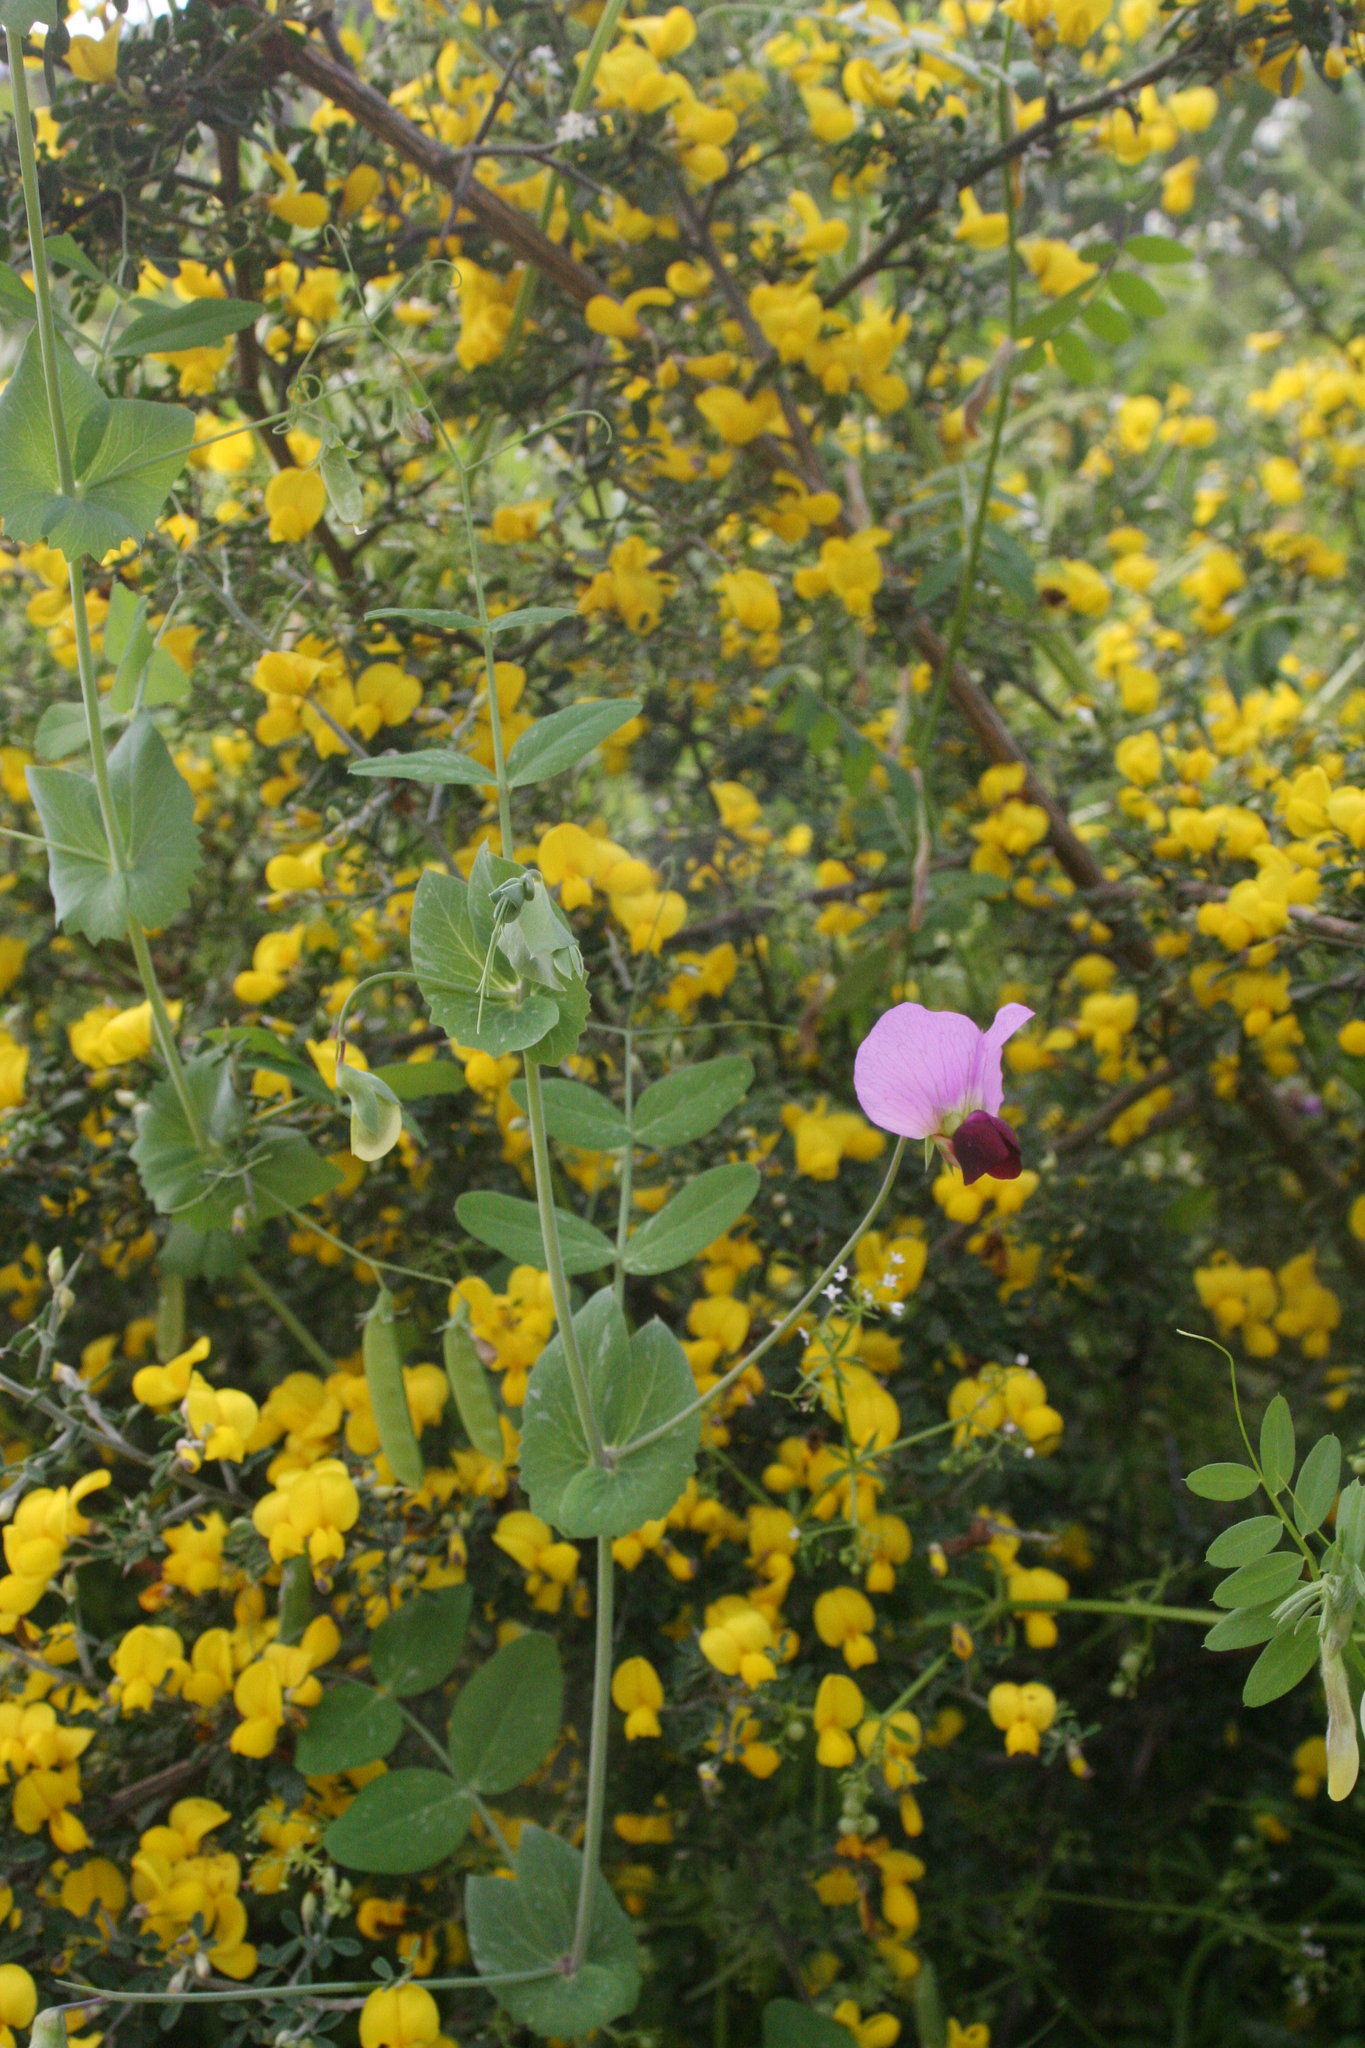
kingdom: Plantae
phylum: Tracheophyta
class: Magnoliopsida
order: Fabales
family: Fabaceae
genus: Calicotome
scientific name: Calicotome villosa
